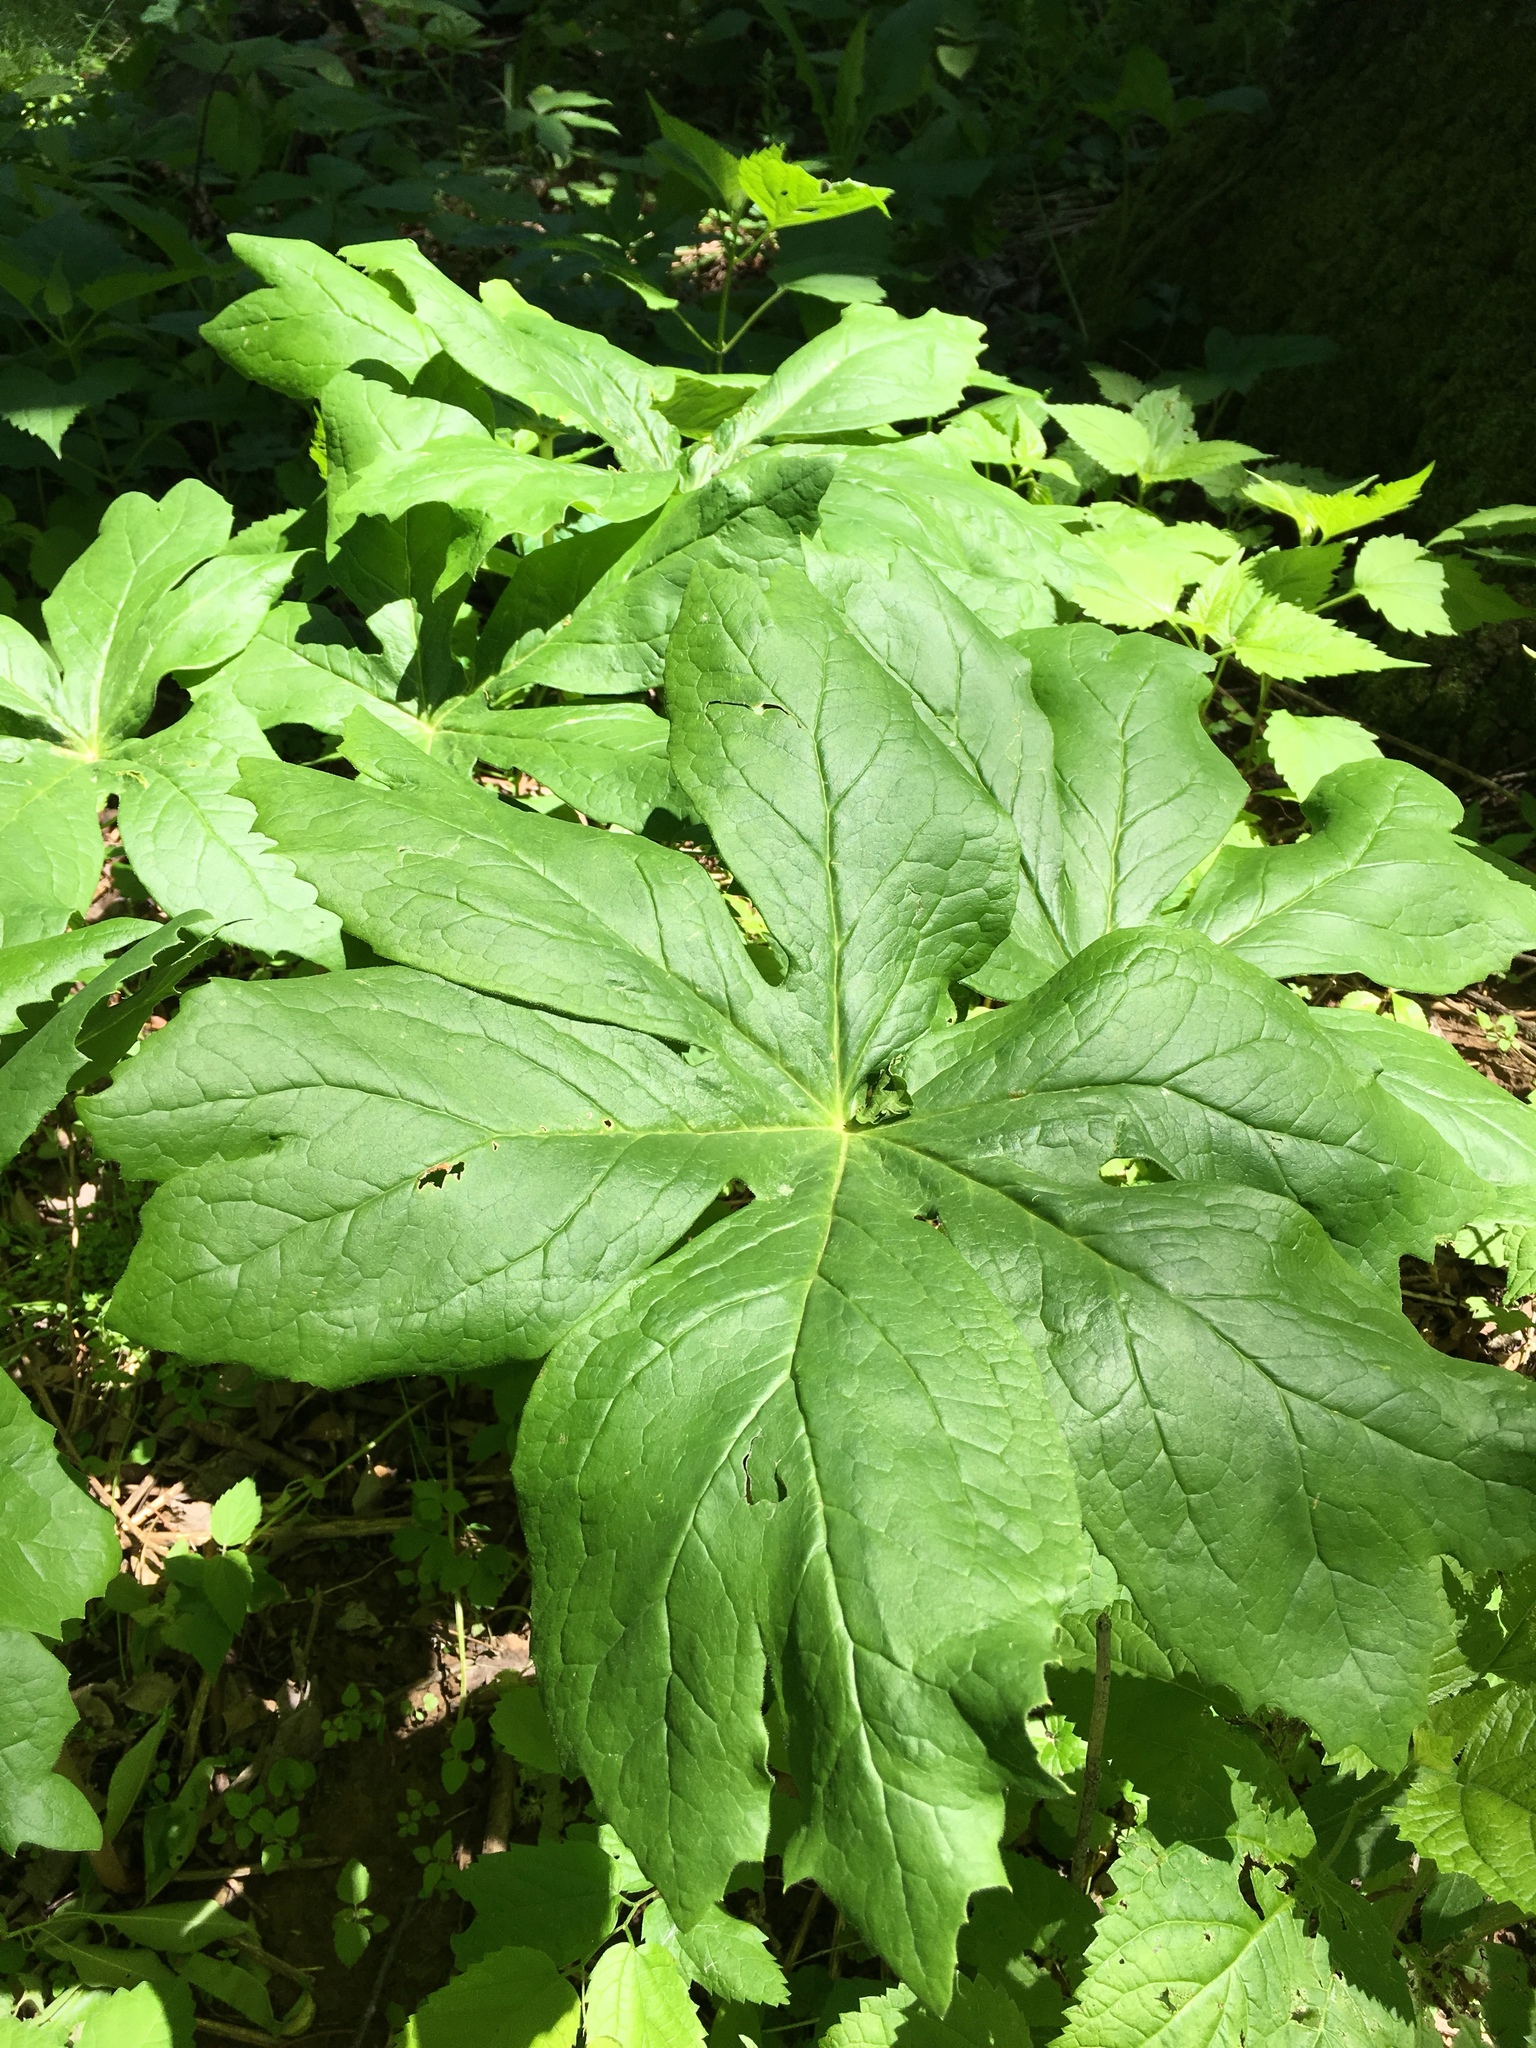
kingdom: Plantae
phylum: Tracheophyta
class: Magnoliopsida
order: Ranunculales
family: Berberidaceae
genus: Podophyllum
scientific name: Podophyllum peltatum
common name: Wild mandrake
